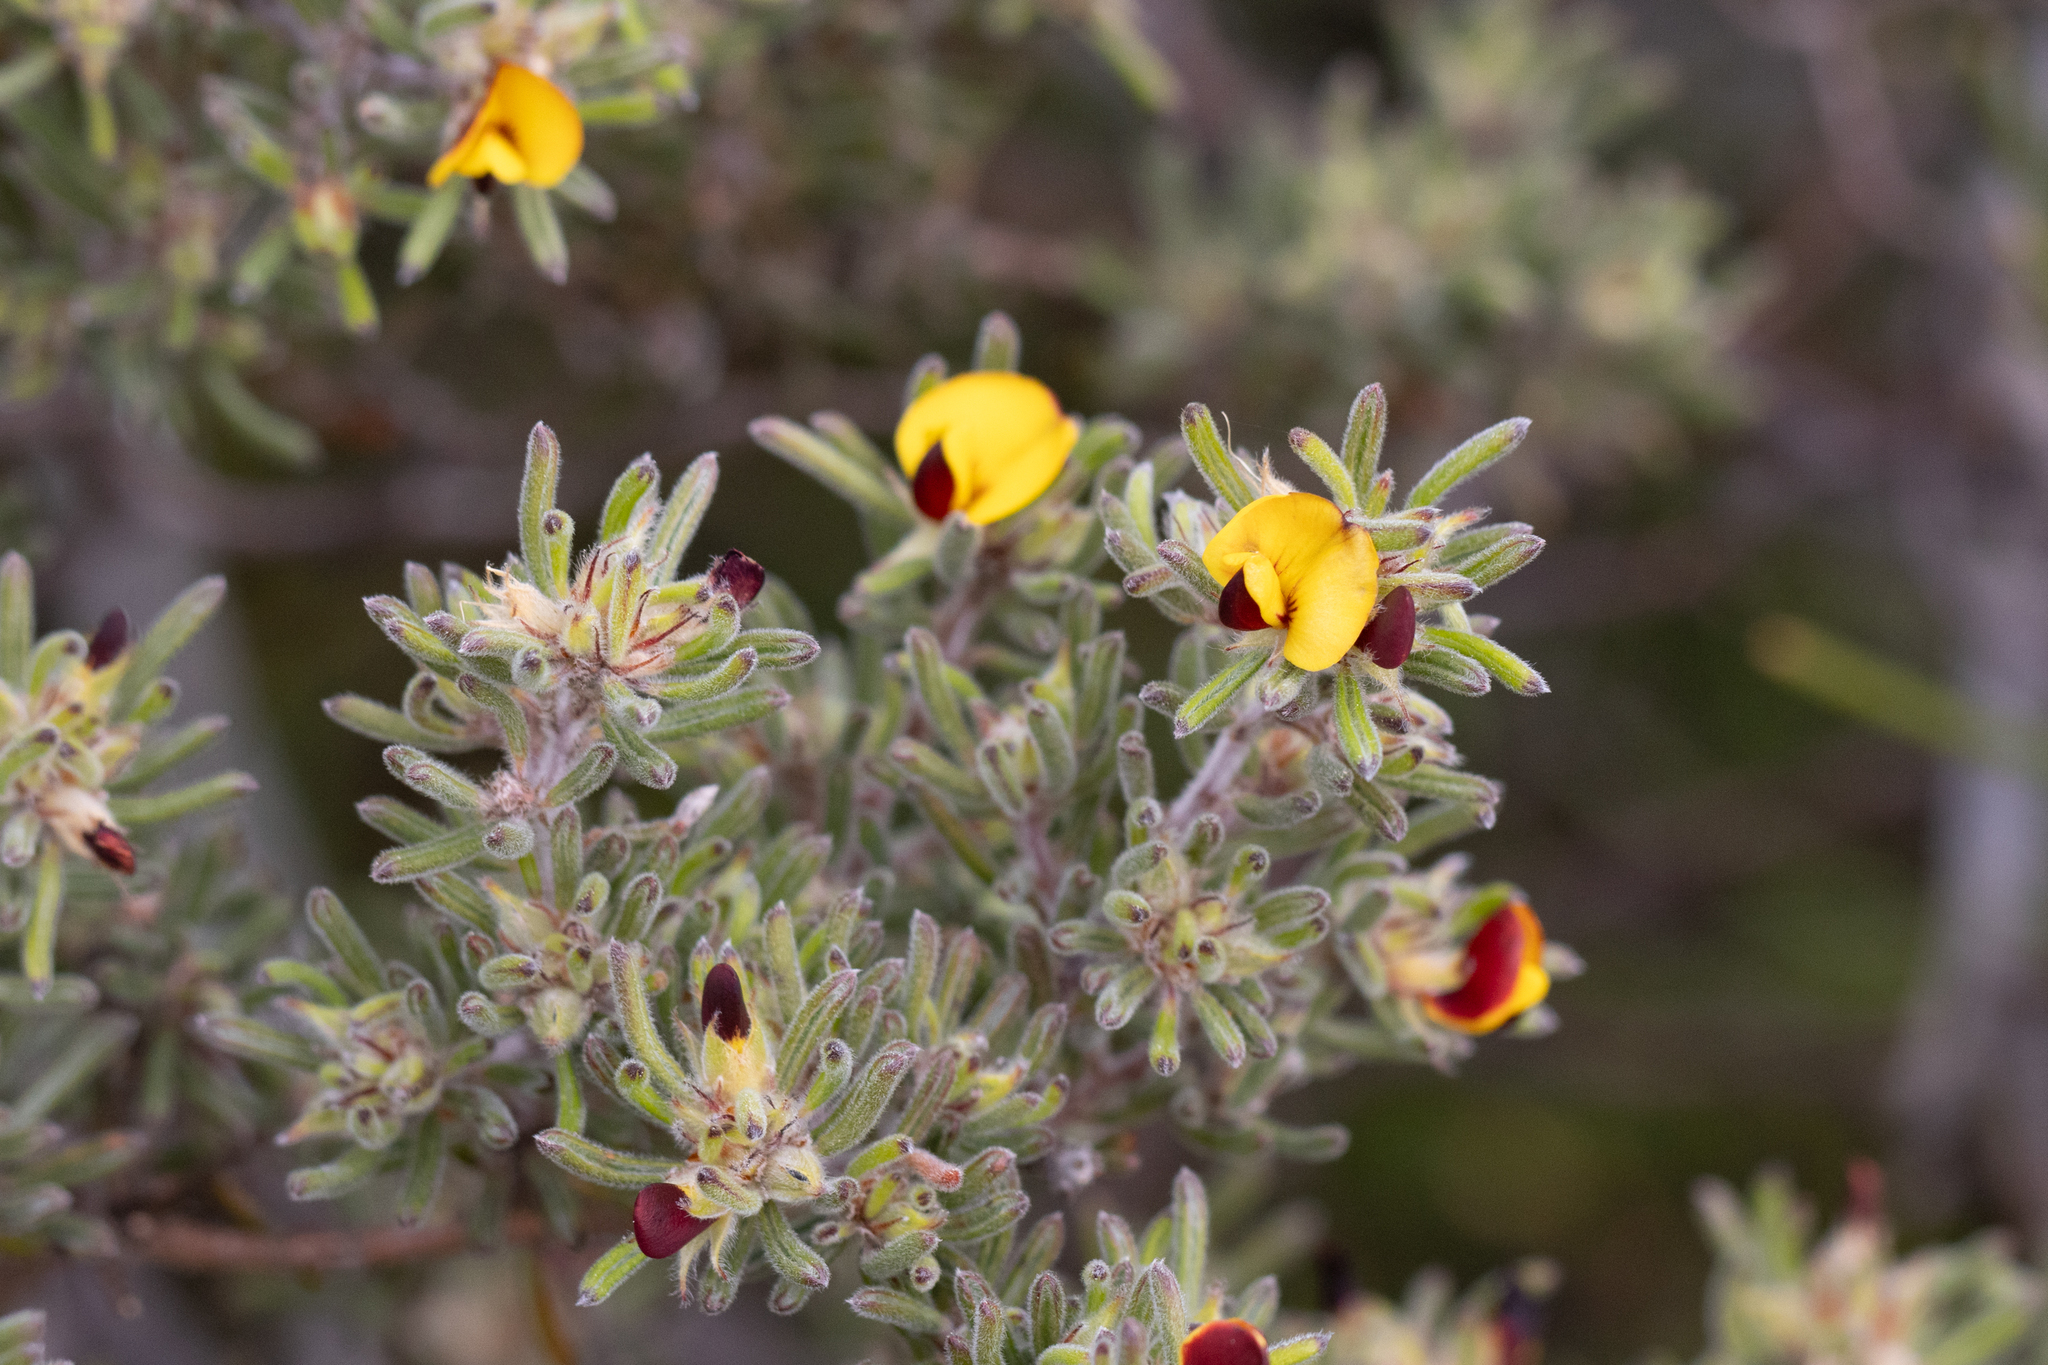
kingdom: Plantae
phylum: Tracheophyta
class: Magnoliopsida
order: Fabales
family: Fabaceae
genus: Pultenaea
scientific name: Pultenaea canaliculata
